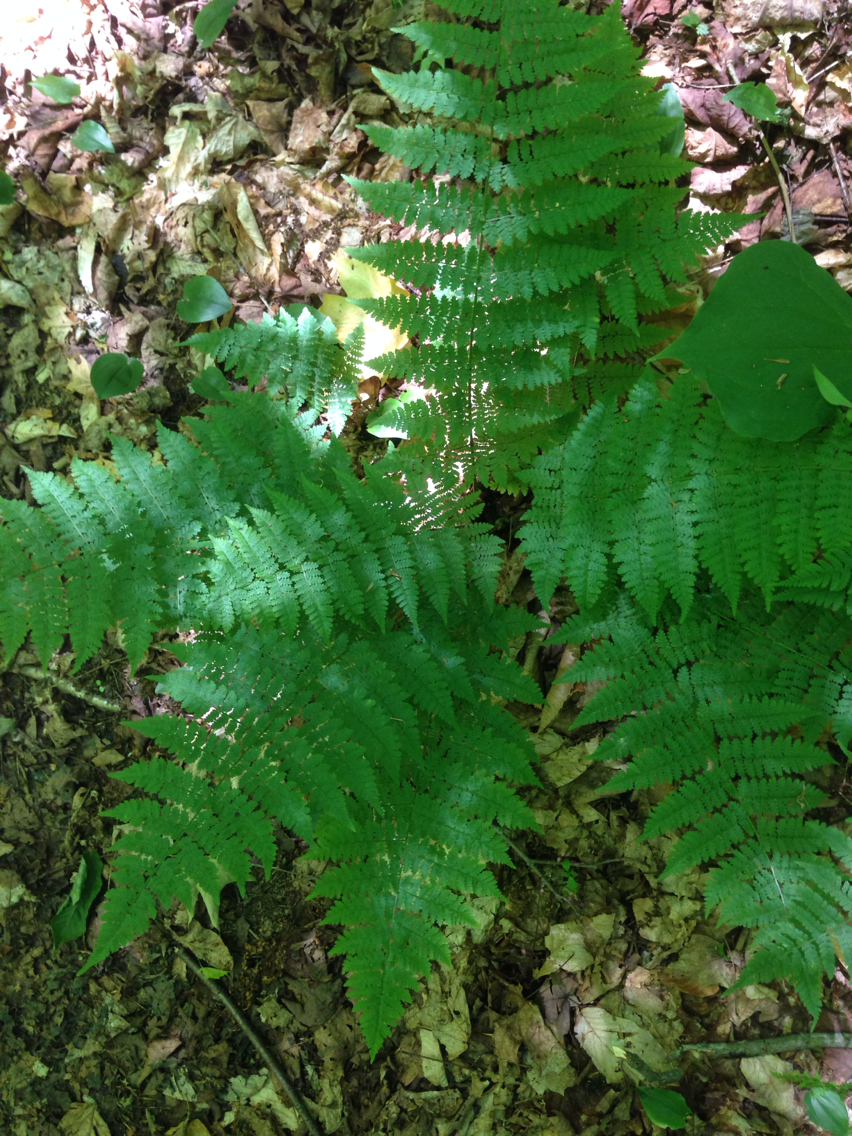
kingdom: Plantae
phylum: Tracheophyta
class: Polypodiopsida
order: Polypodiales
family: Dryopteridaceae
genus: Dryopteris
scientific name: Dryopteris intermedia
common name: Evergreen wood fern
